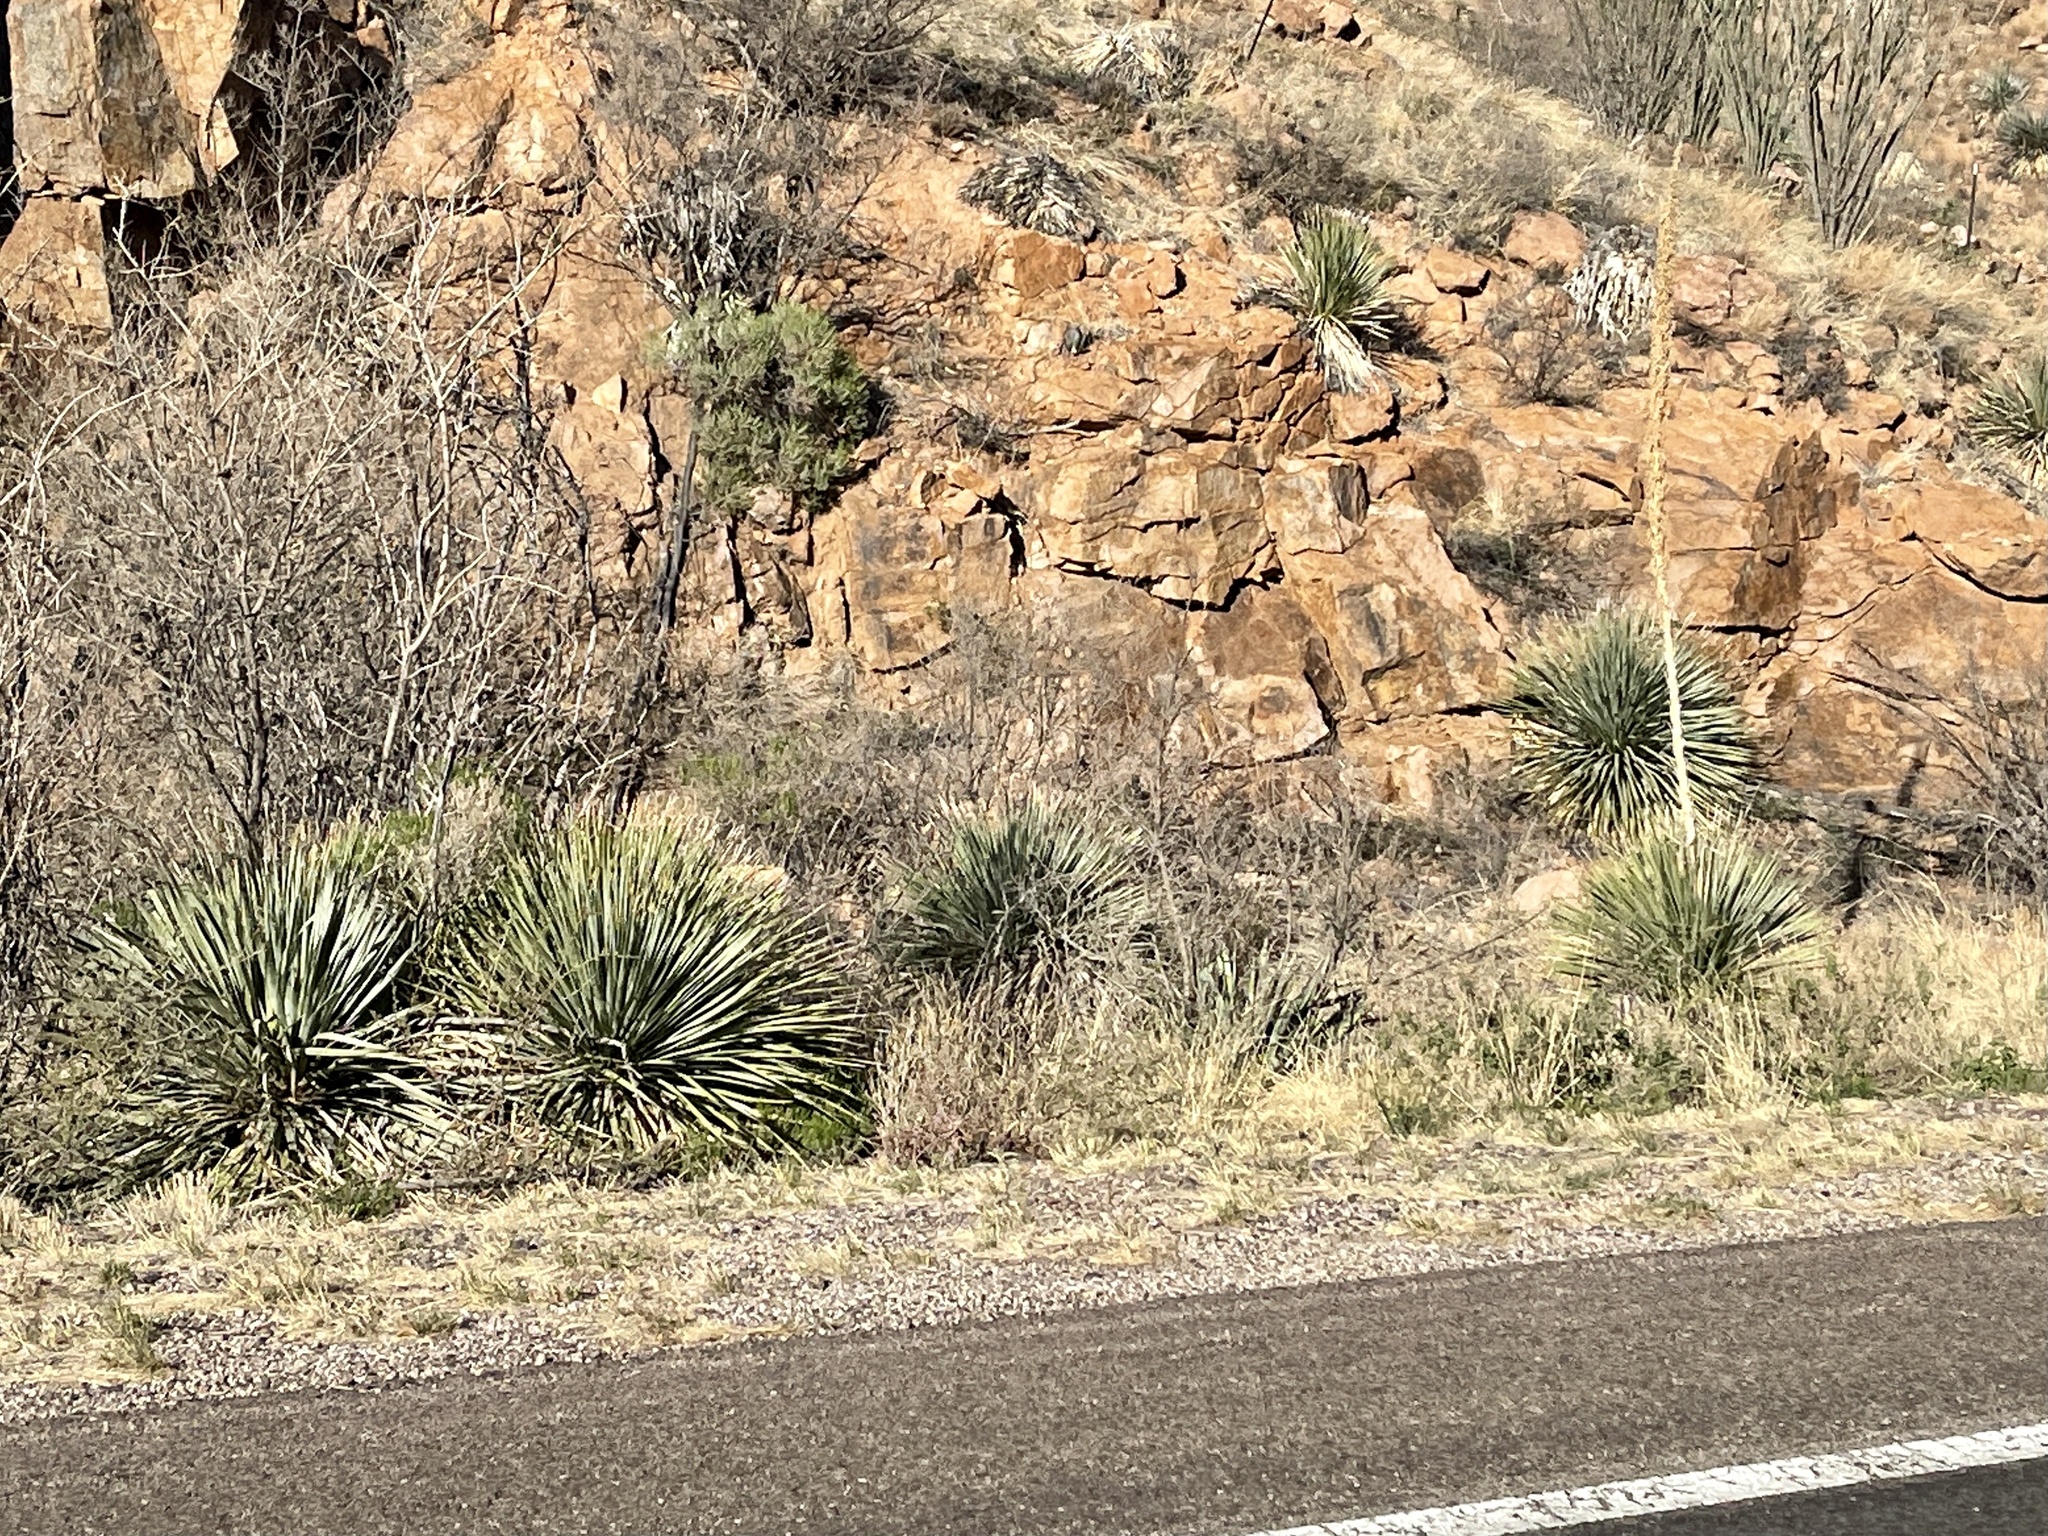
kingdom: Plantae
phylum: Tracheophyta
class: Liliopsida
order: Asparagales
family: Asparagaceae
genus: Dasylirion
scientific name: Dasylirion wheeleri
